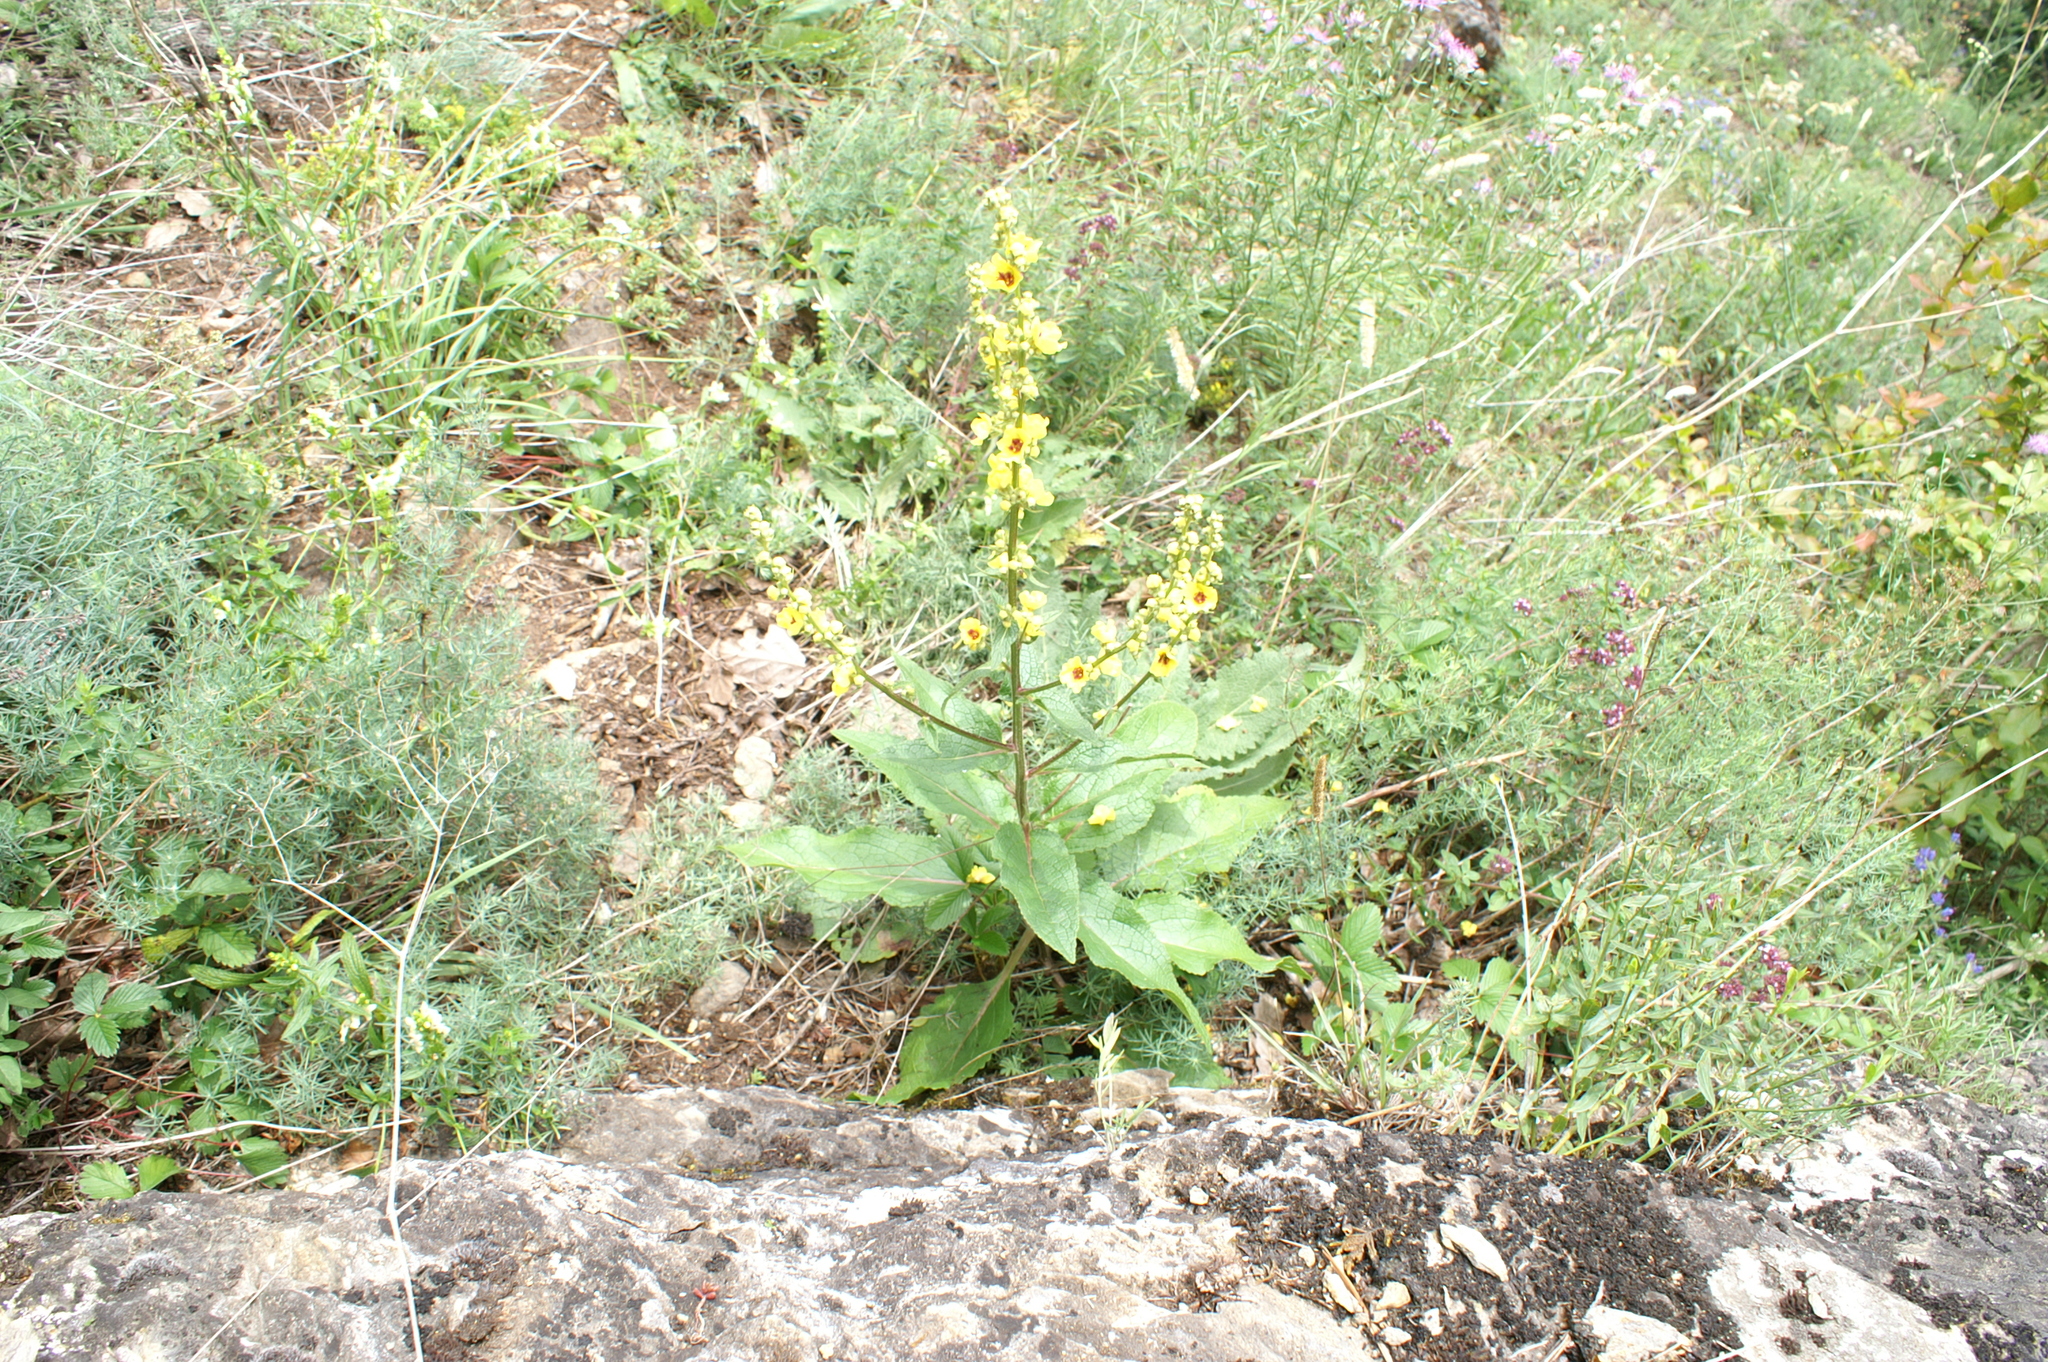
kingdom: Plantae
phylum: Tracheophyta
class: Magnoliopsida
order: Lamiales
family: Scrophulariaceae
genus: Verbascum
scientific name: Verbascum chaixii
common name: Nettle-leaved mullein
